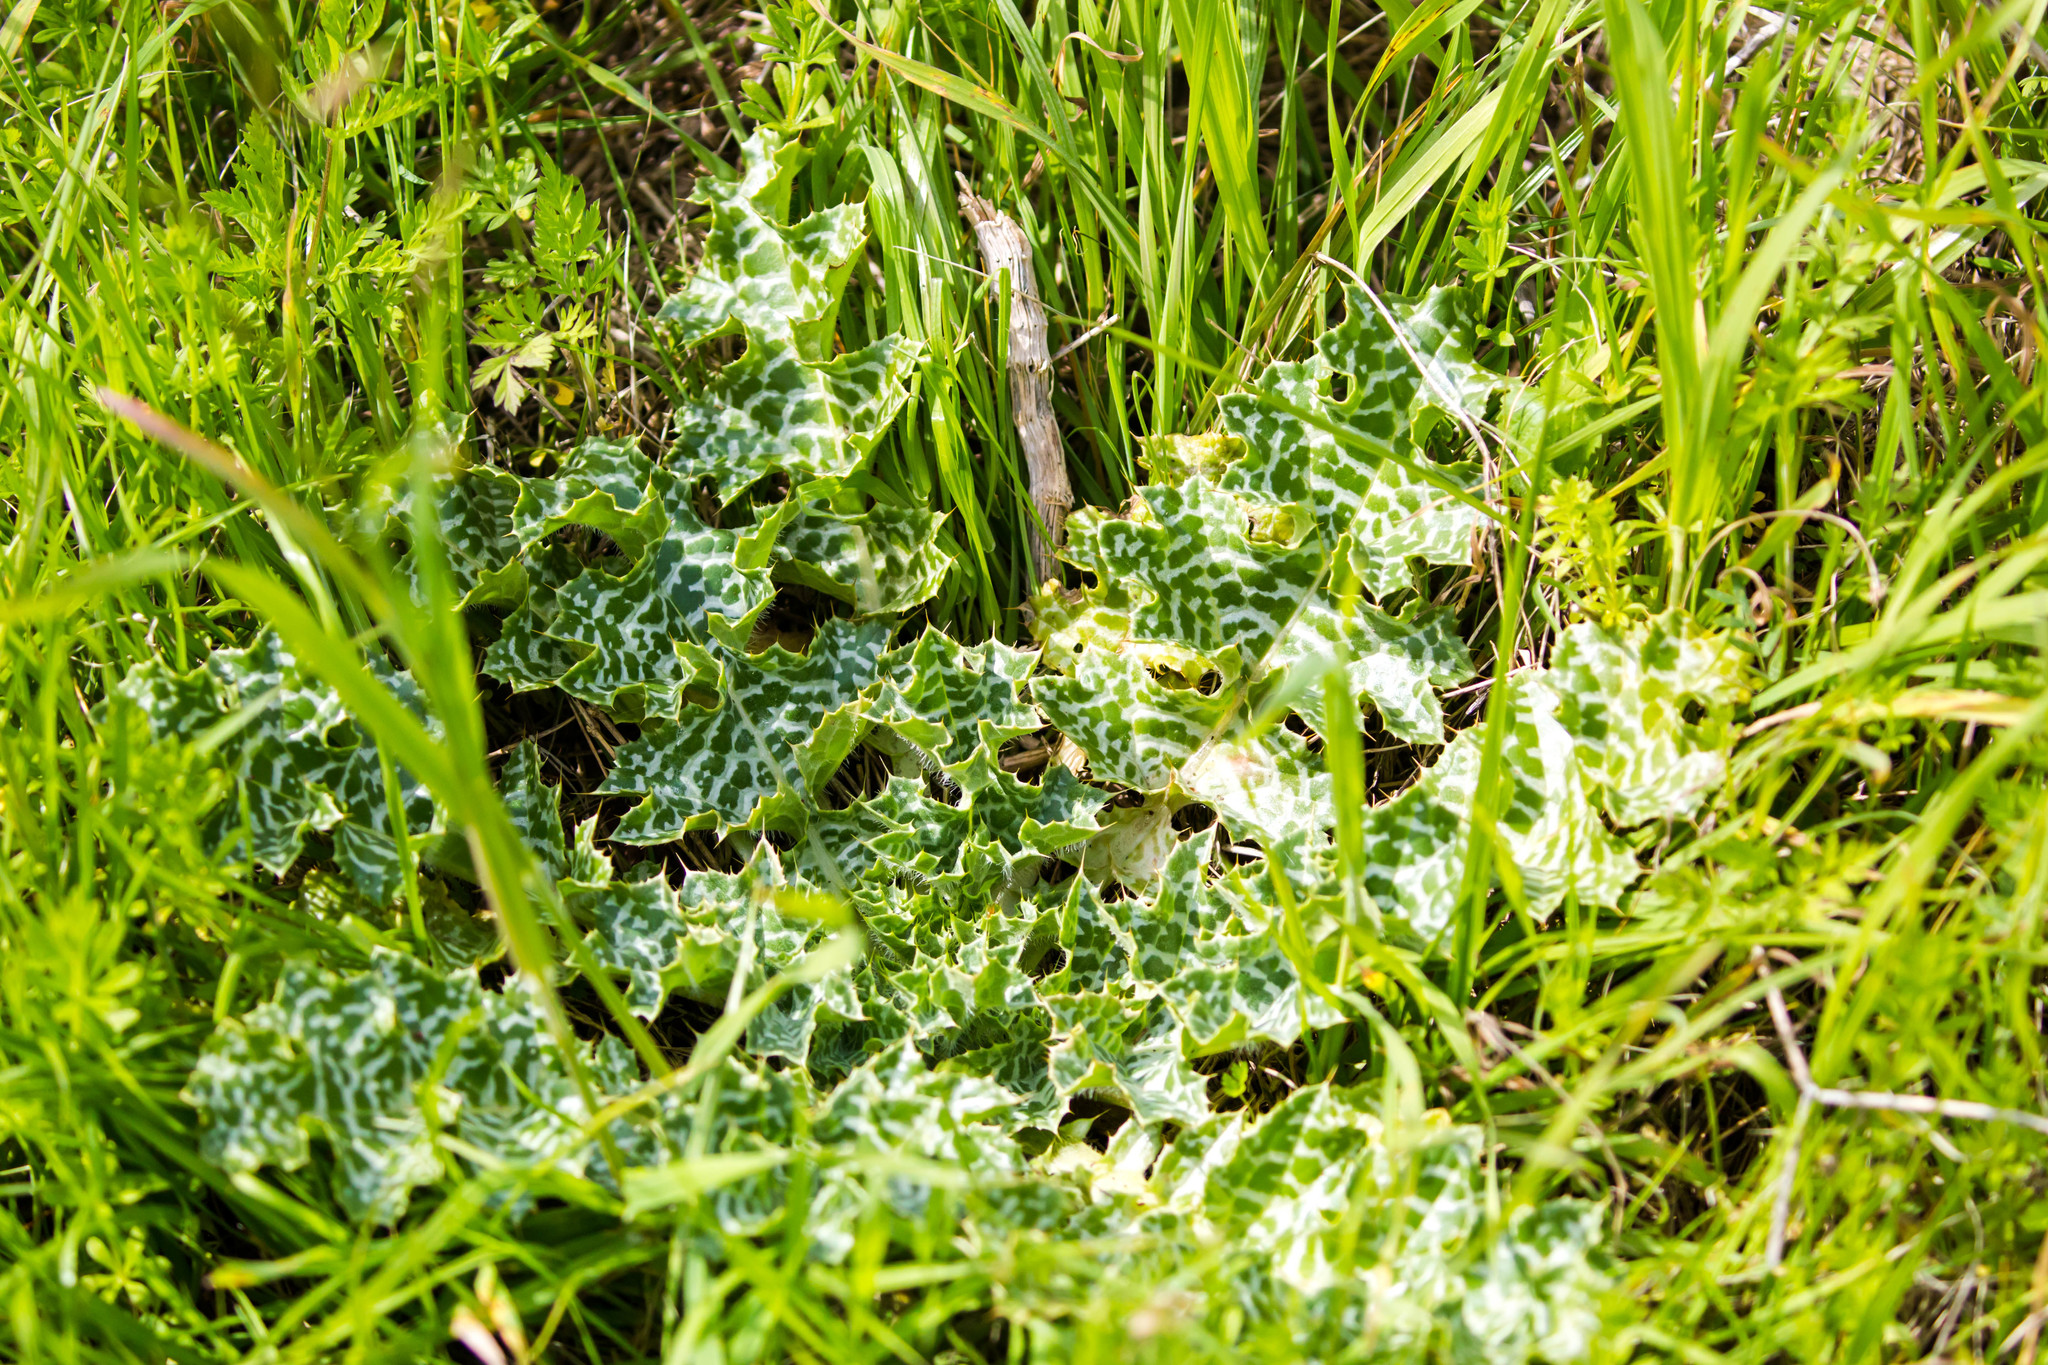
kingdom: Plantae
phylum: Tracheophyta
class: Magnoliopsida
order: Asterales
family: Asteraceae
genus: Silybum
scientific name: Silybum marianum
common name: Milk thistle
